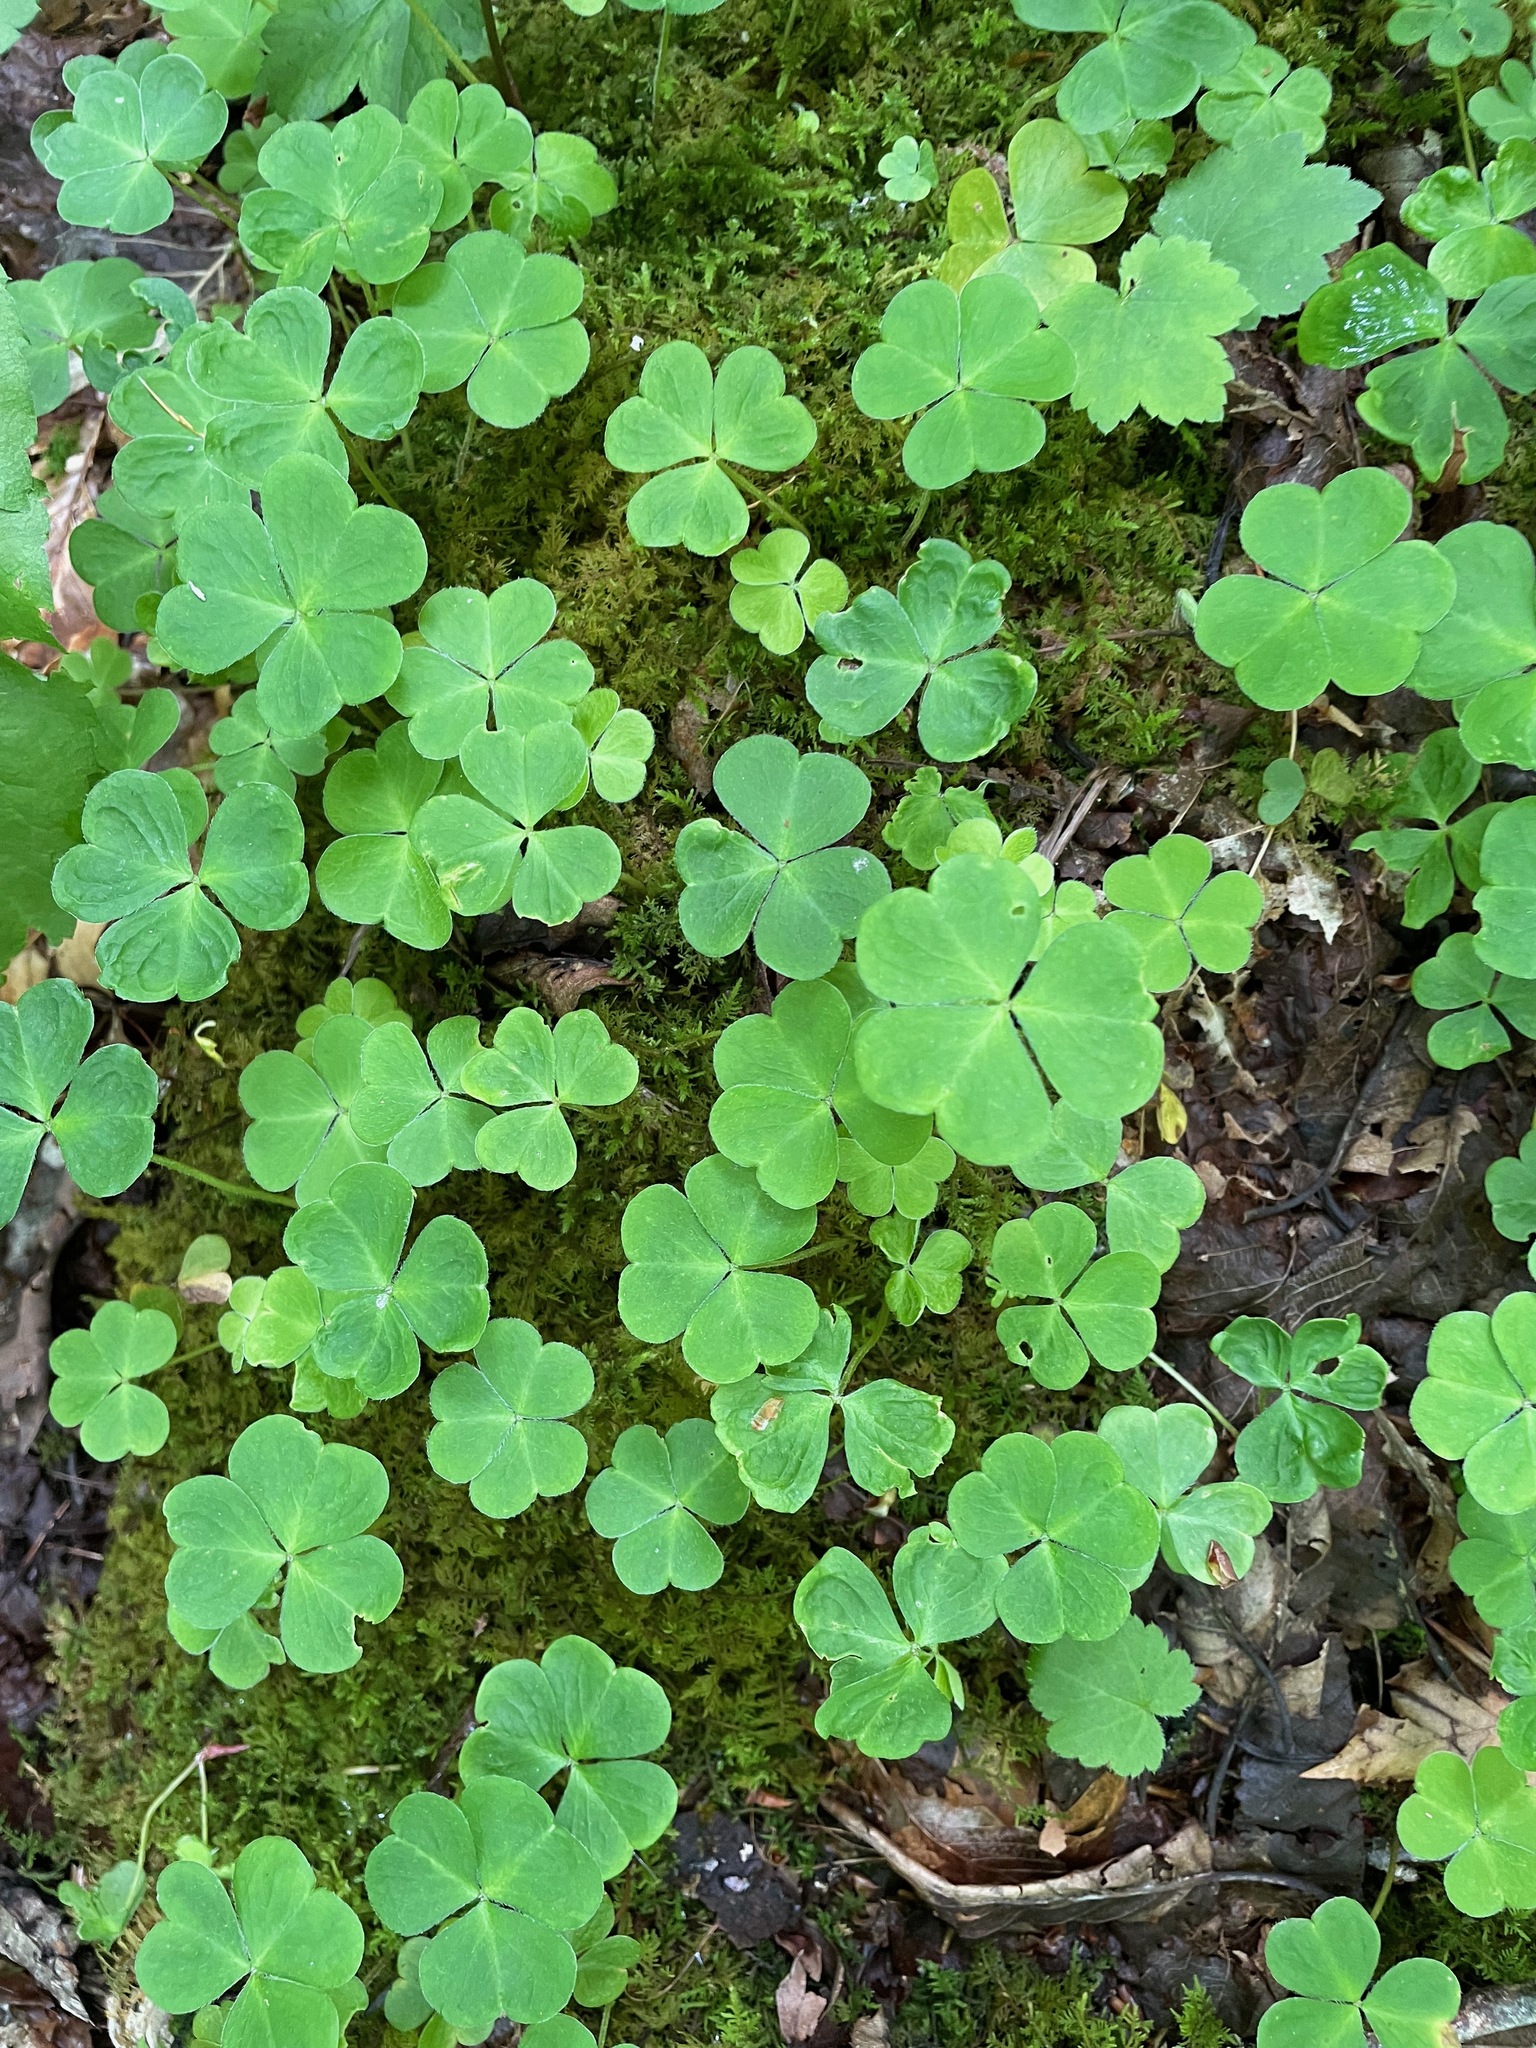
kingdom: Plantae
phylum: Tracheophyta
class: Magnoliopsida
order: Oxalidales
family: Oxalidaceae
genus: Oxalis
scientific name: Oxalis montana
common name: American wood-sorrel
